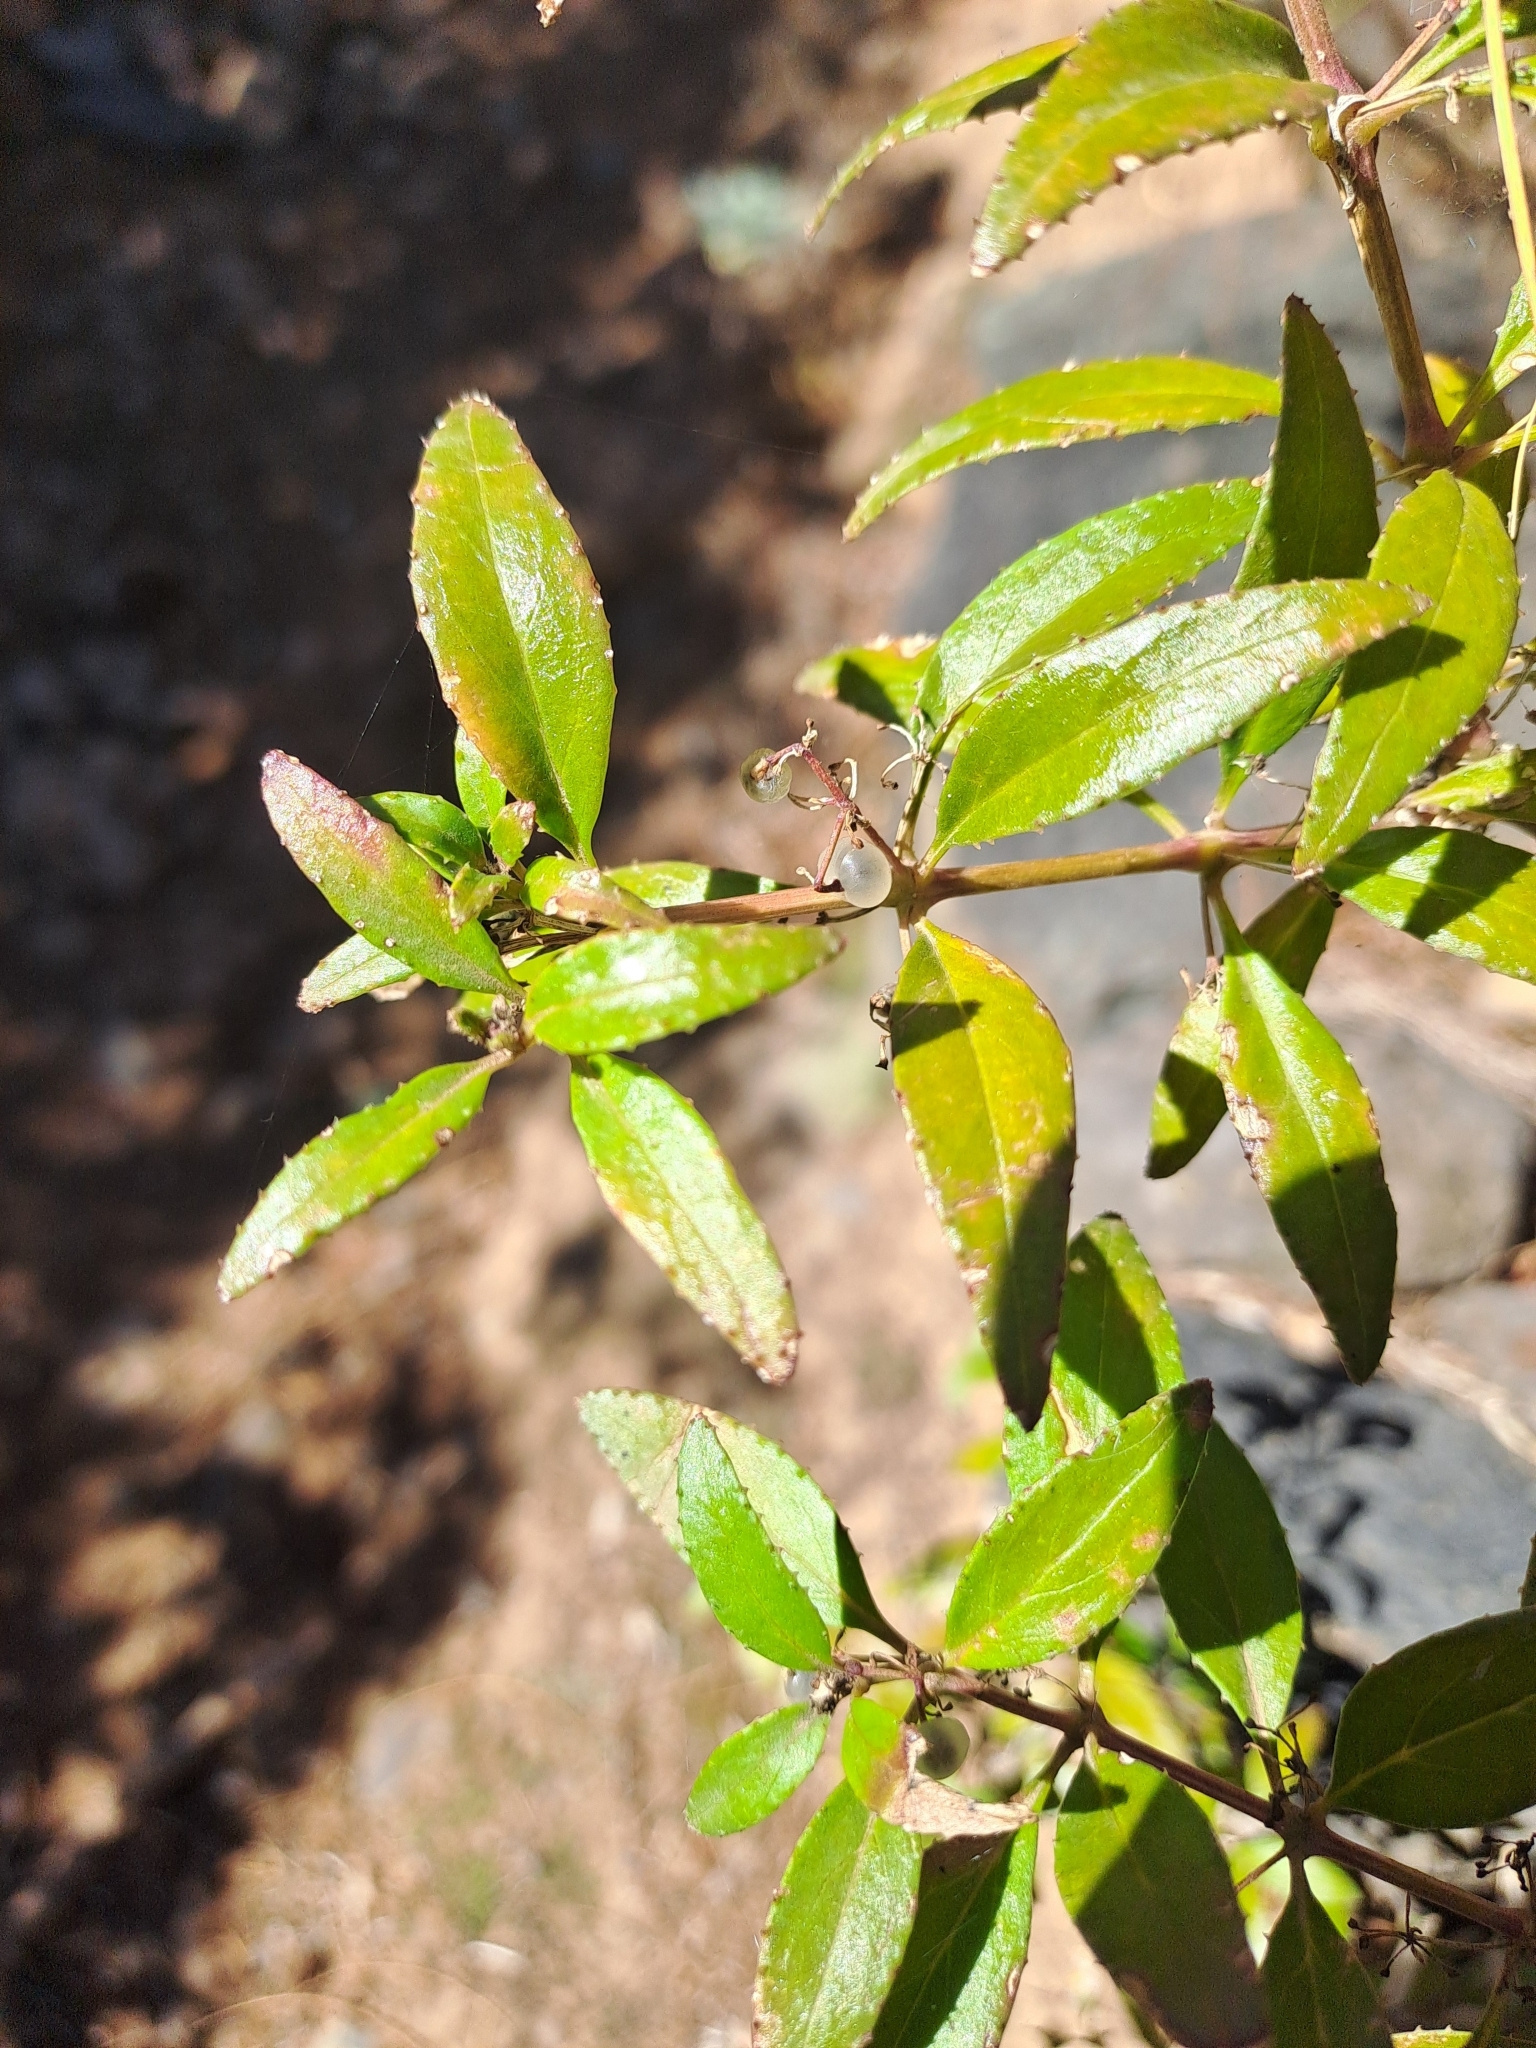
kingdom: Plantae
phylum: Tracheophyta
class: Magnoliopsida
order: Gentianales
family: Rubiaceae
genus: Rubia
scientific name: Rubia fruticosa
